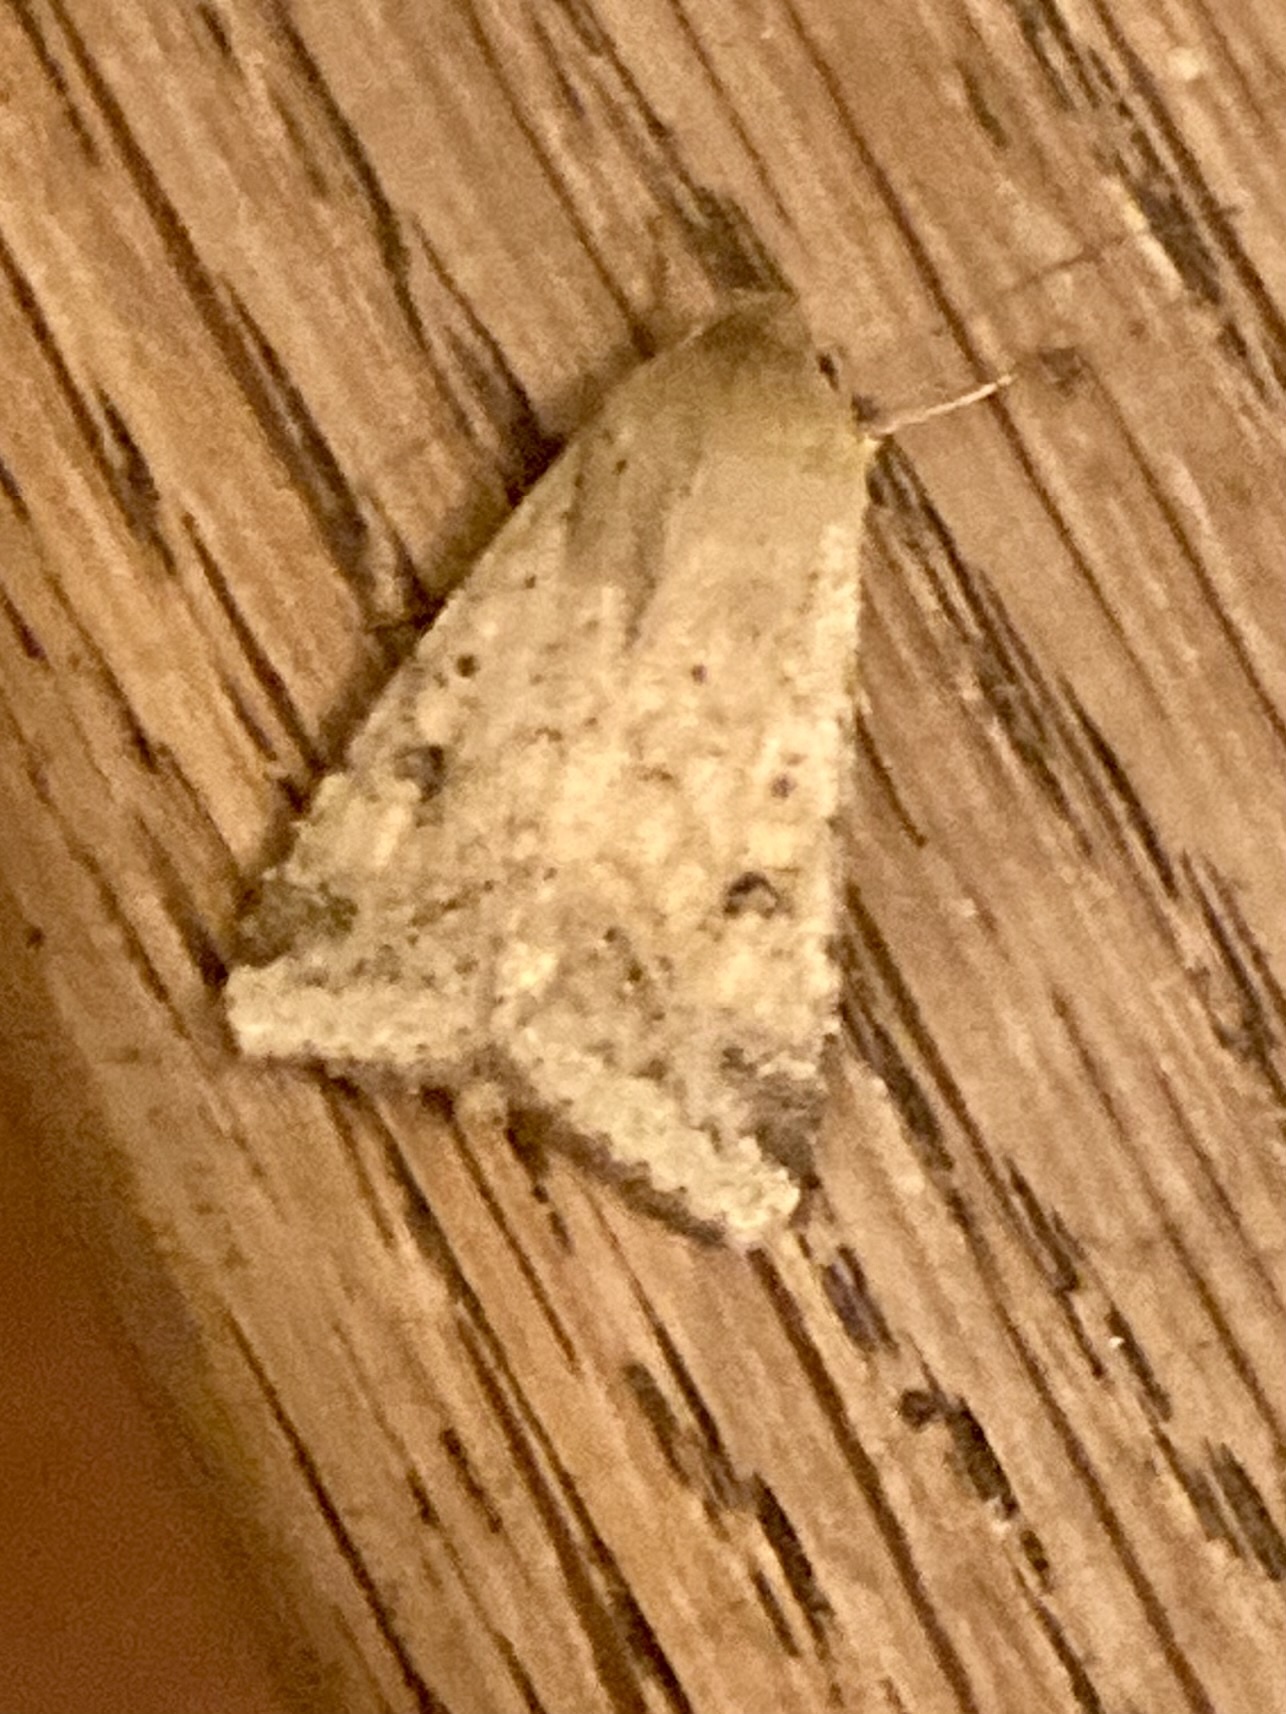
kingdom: Animalia
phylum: Arthropoda
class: Insecta
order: Lepidoptera
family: Noctuidae
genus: Helicoverpa
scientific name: Helicoverpa armigera
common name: Cotton bollworm
